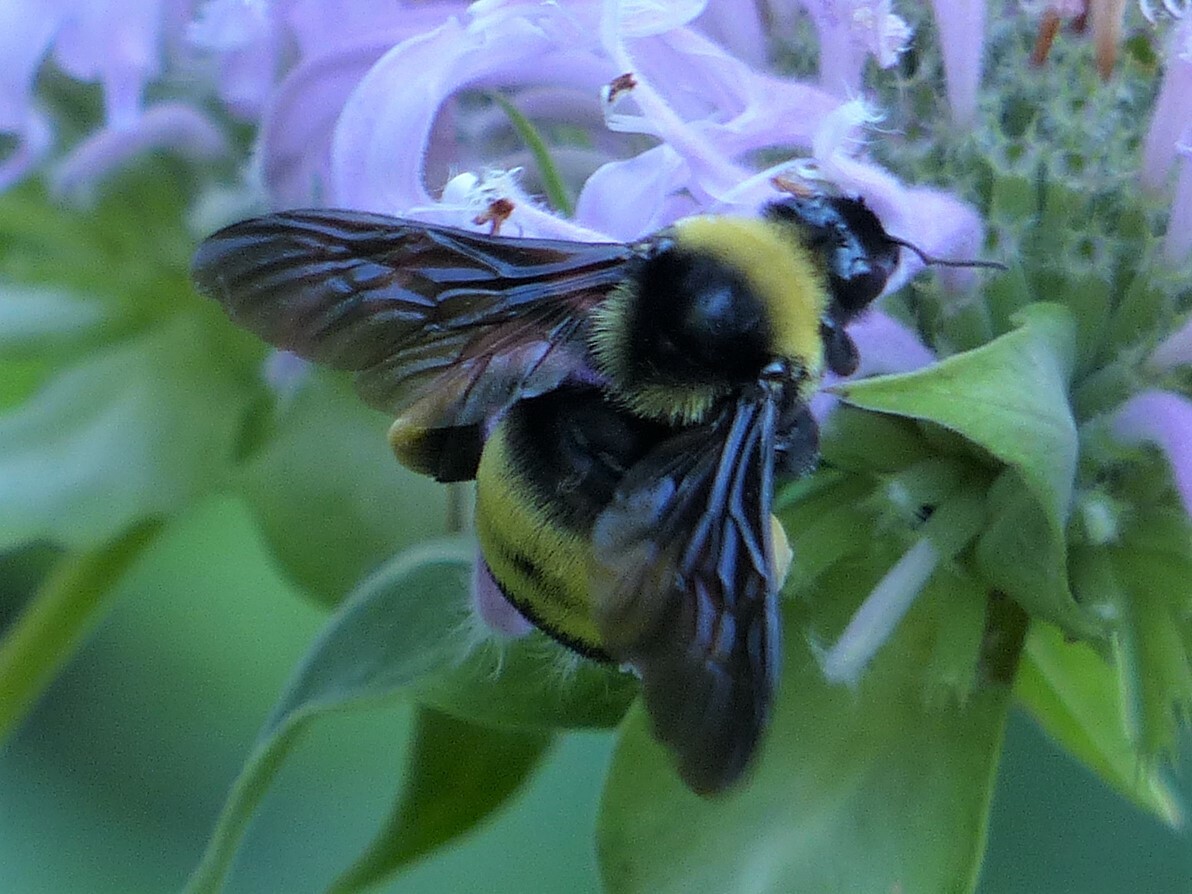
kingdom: Animalia
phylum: Arthropoda
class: Insecta
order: Hymenoptera
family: Apidae
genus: Bombus
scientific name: Bombus auricomus
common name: Black and gold bumble bee
